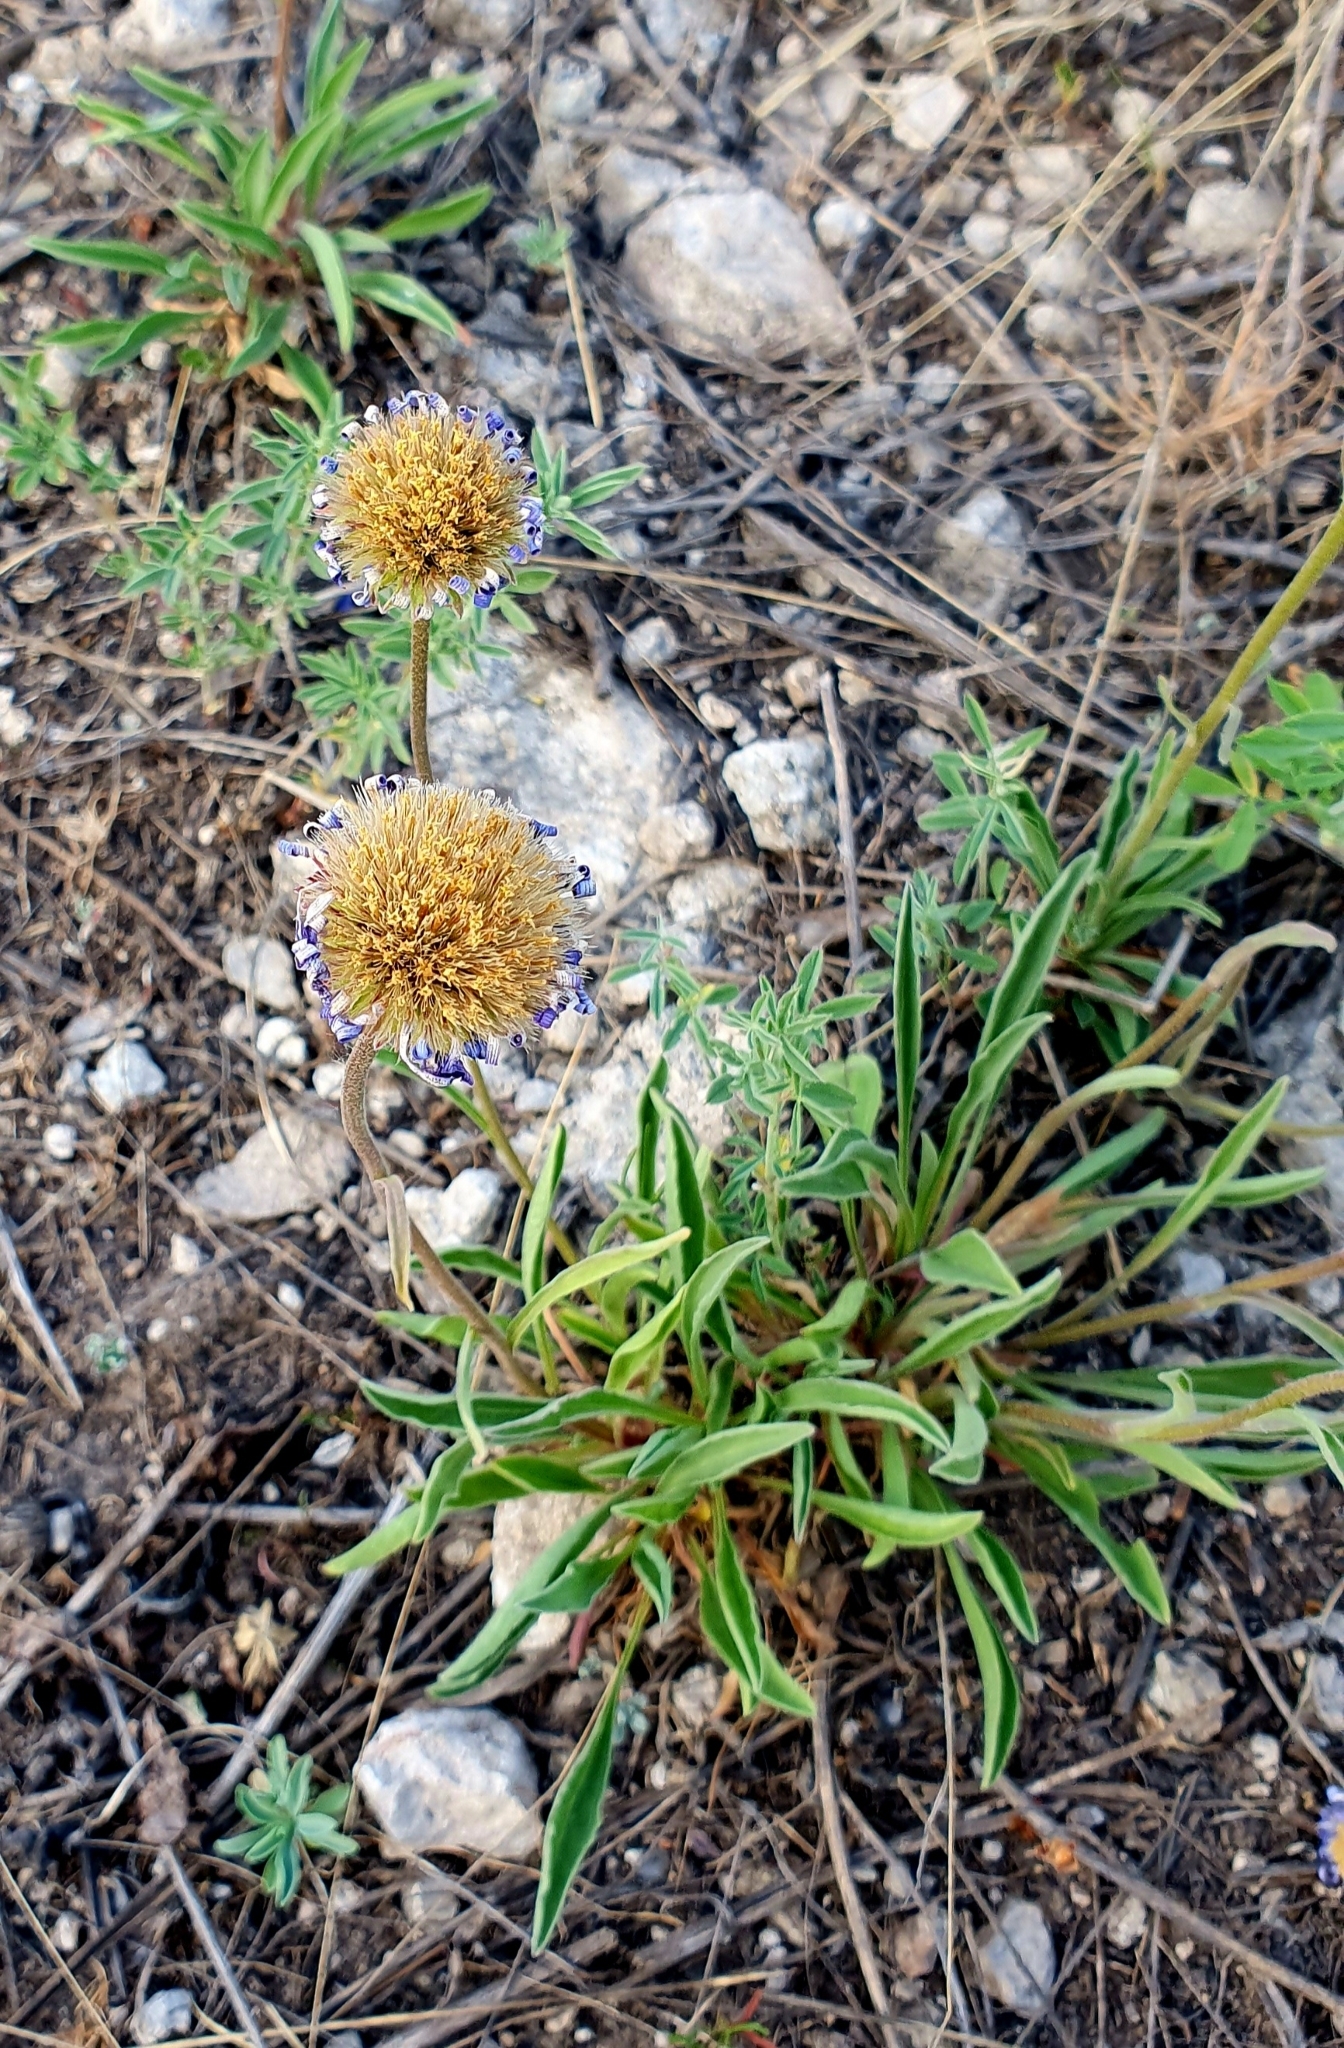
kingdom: Plantae
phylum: Tracheophyta
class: Magnoliopsida
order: Asterales
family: Asteraceae
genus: Aster
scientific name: Aster alpinus
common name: Alpine aster
